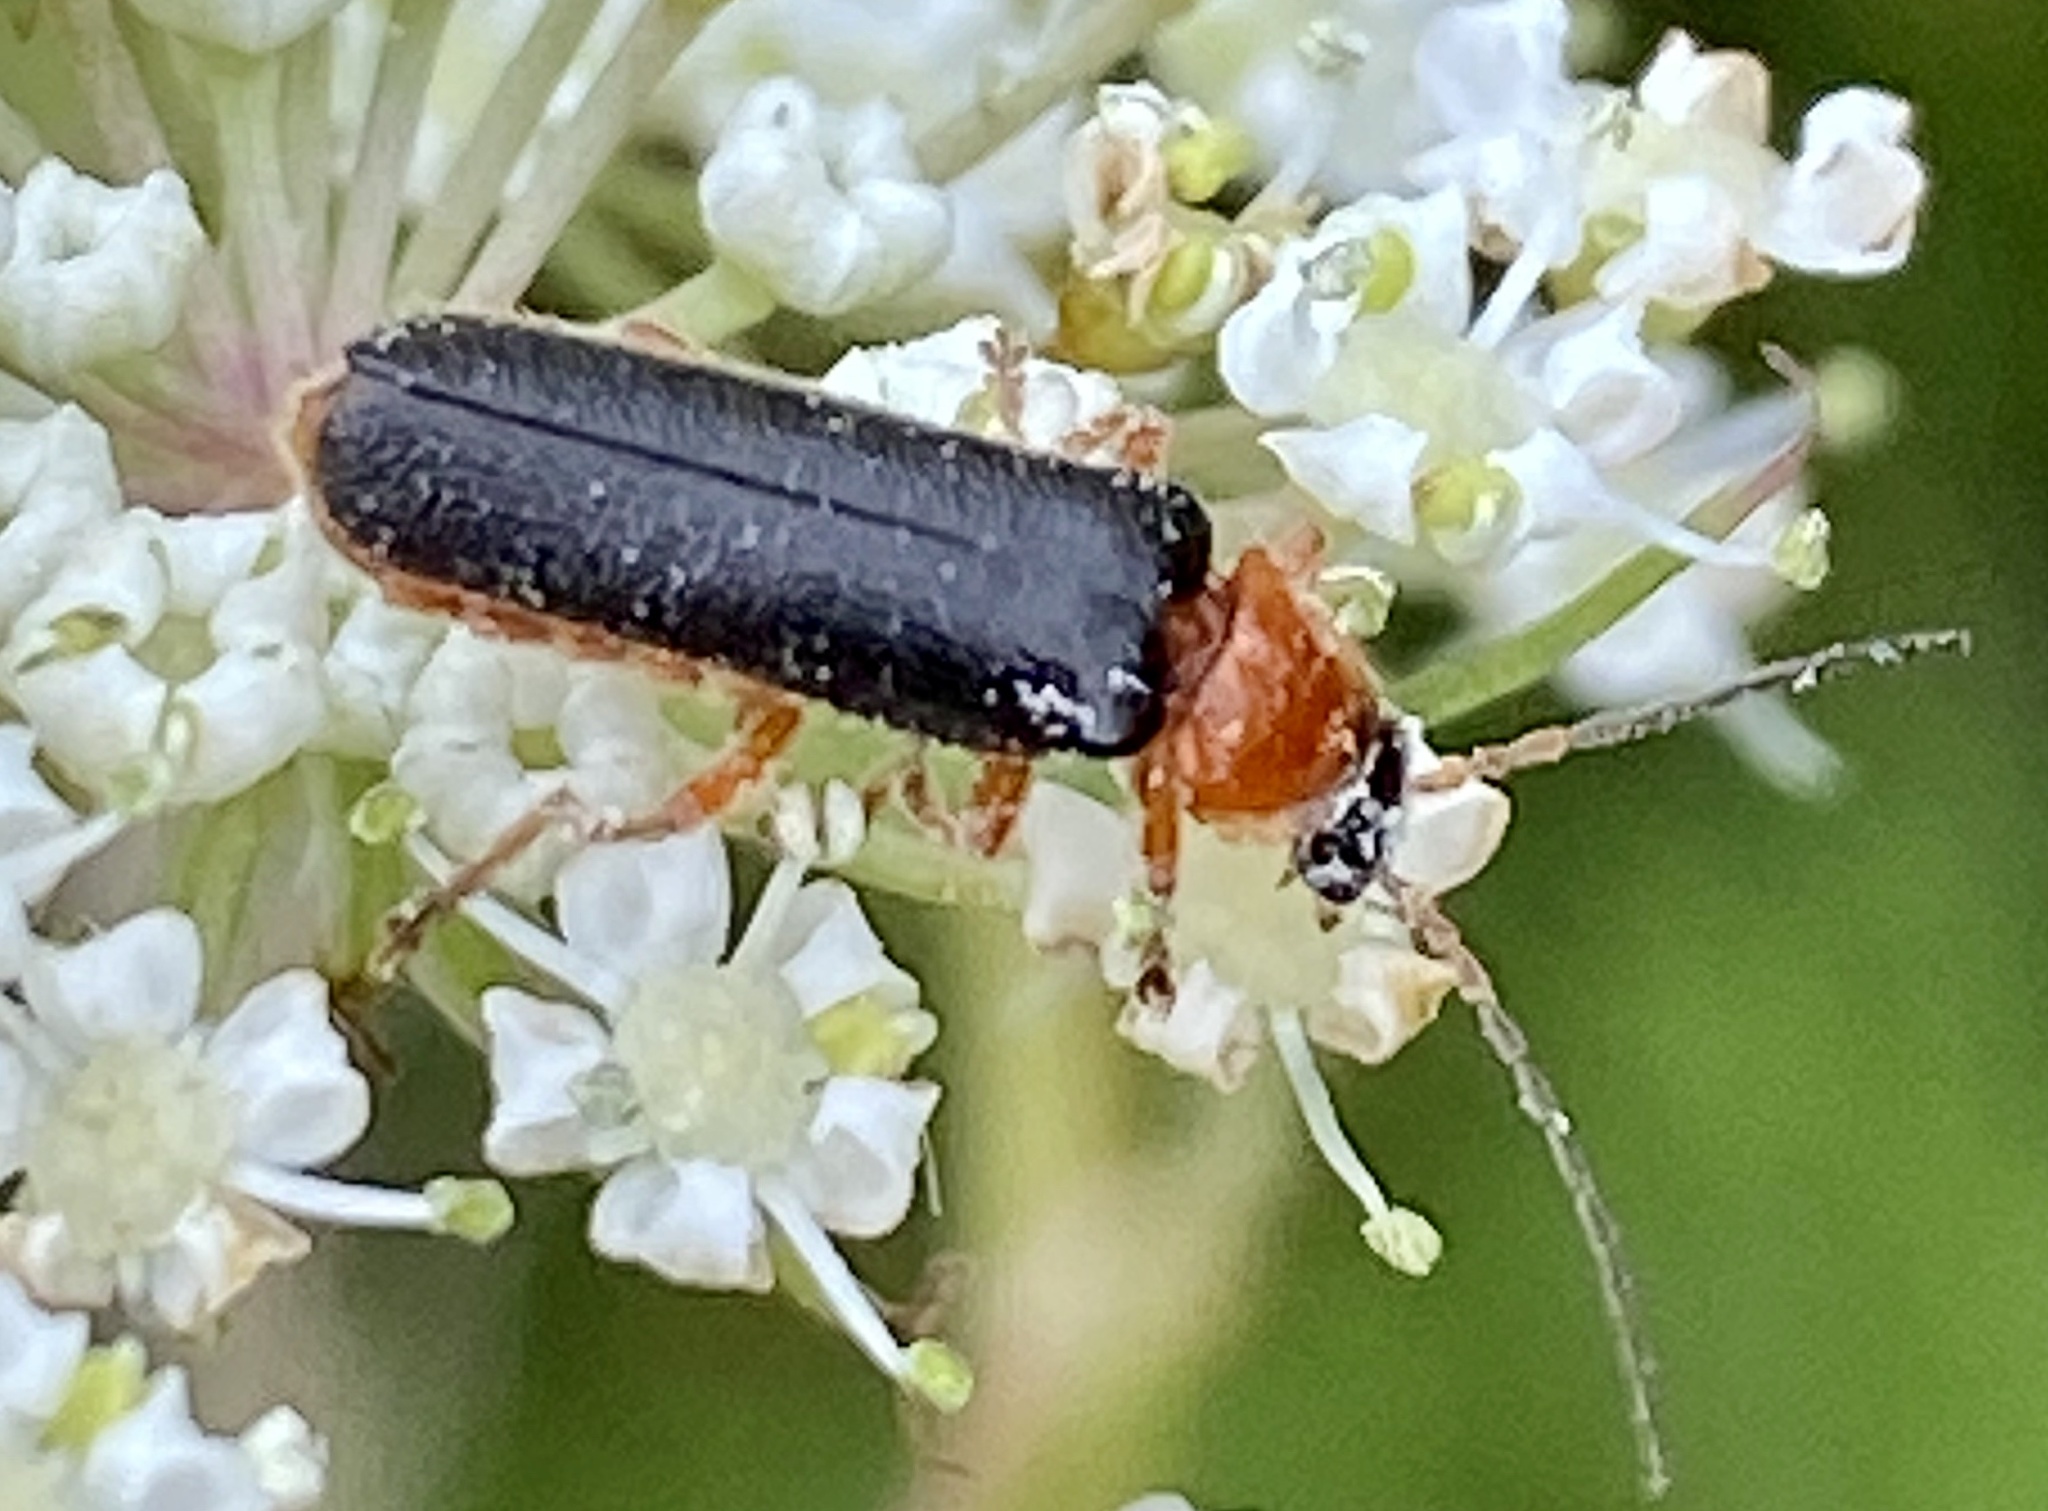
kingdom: Animalia
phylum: Arthropoda
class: Insecta
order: Coleoptera
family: Cantharidae
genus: Cantharis
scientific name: Cantharis nigra
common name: Cantharid beetle
